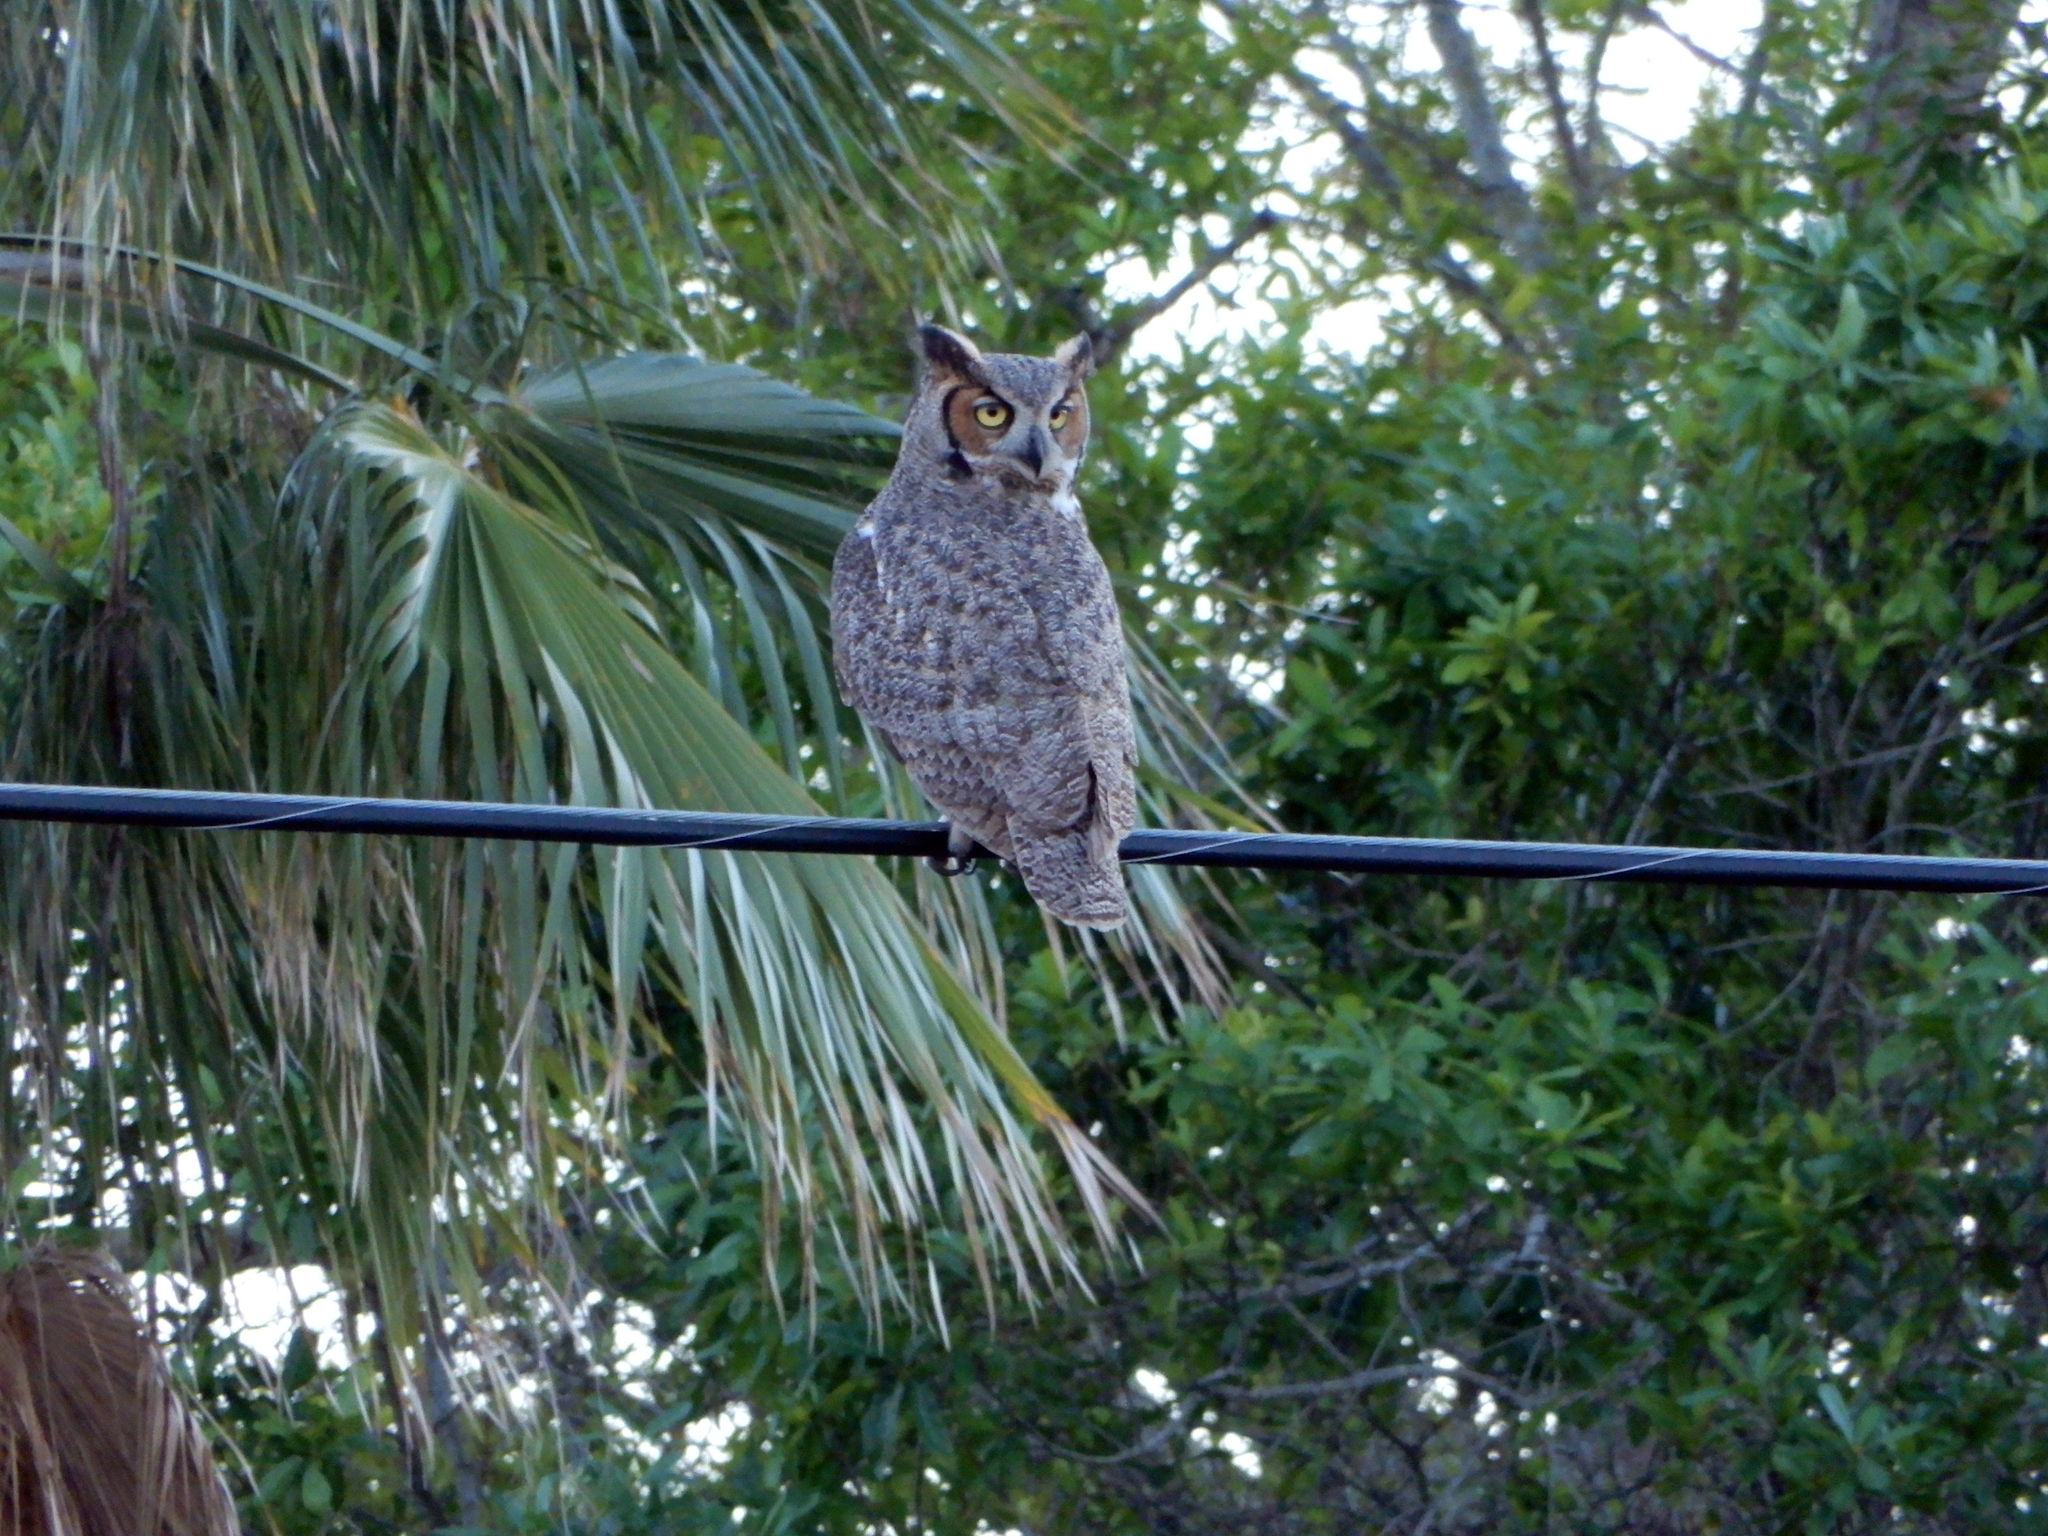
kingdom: Animalia
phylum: Chordata
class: Aves
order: Strigiformes
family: Strigidae
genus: Bubo
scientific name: Bubo virginianus
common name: Great horned owl
